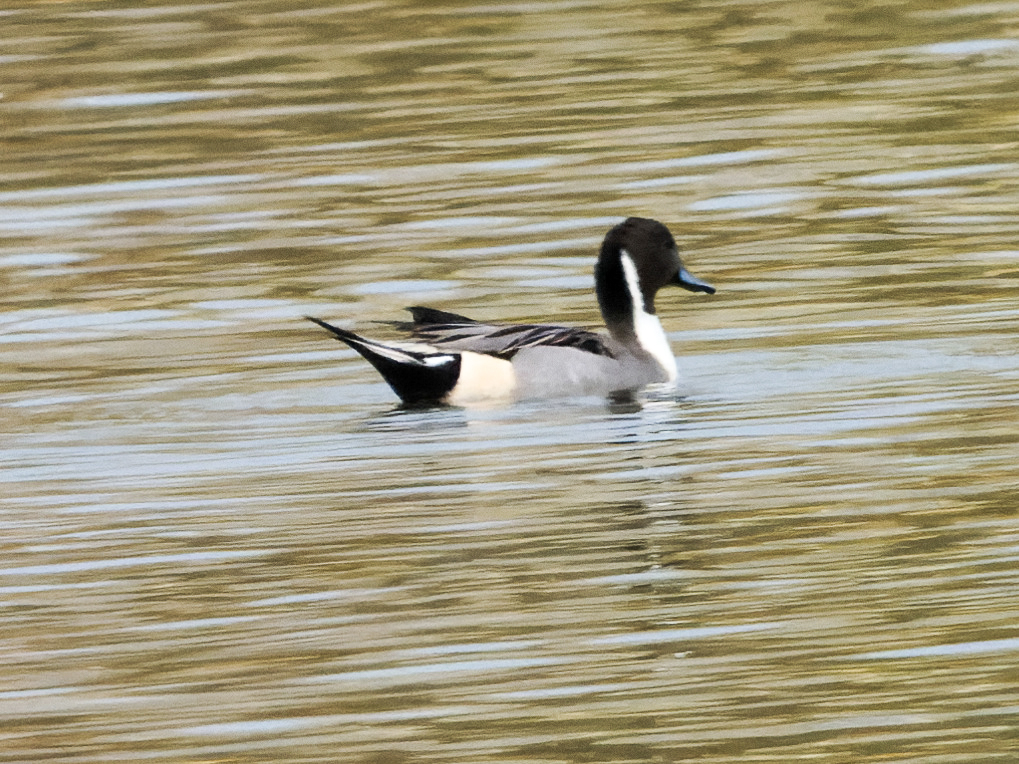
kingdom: Animalia
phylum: Chordata
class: Aves
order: Anseriformes
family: Anatidae
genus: Anas
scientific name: Anas acuta
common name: Northern pintail
